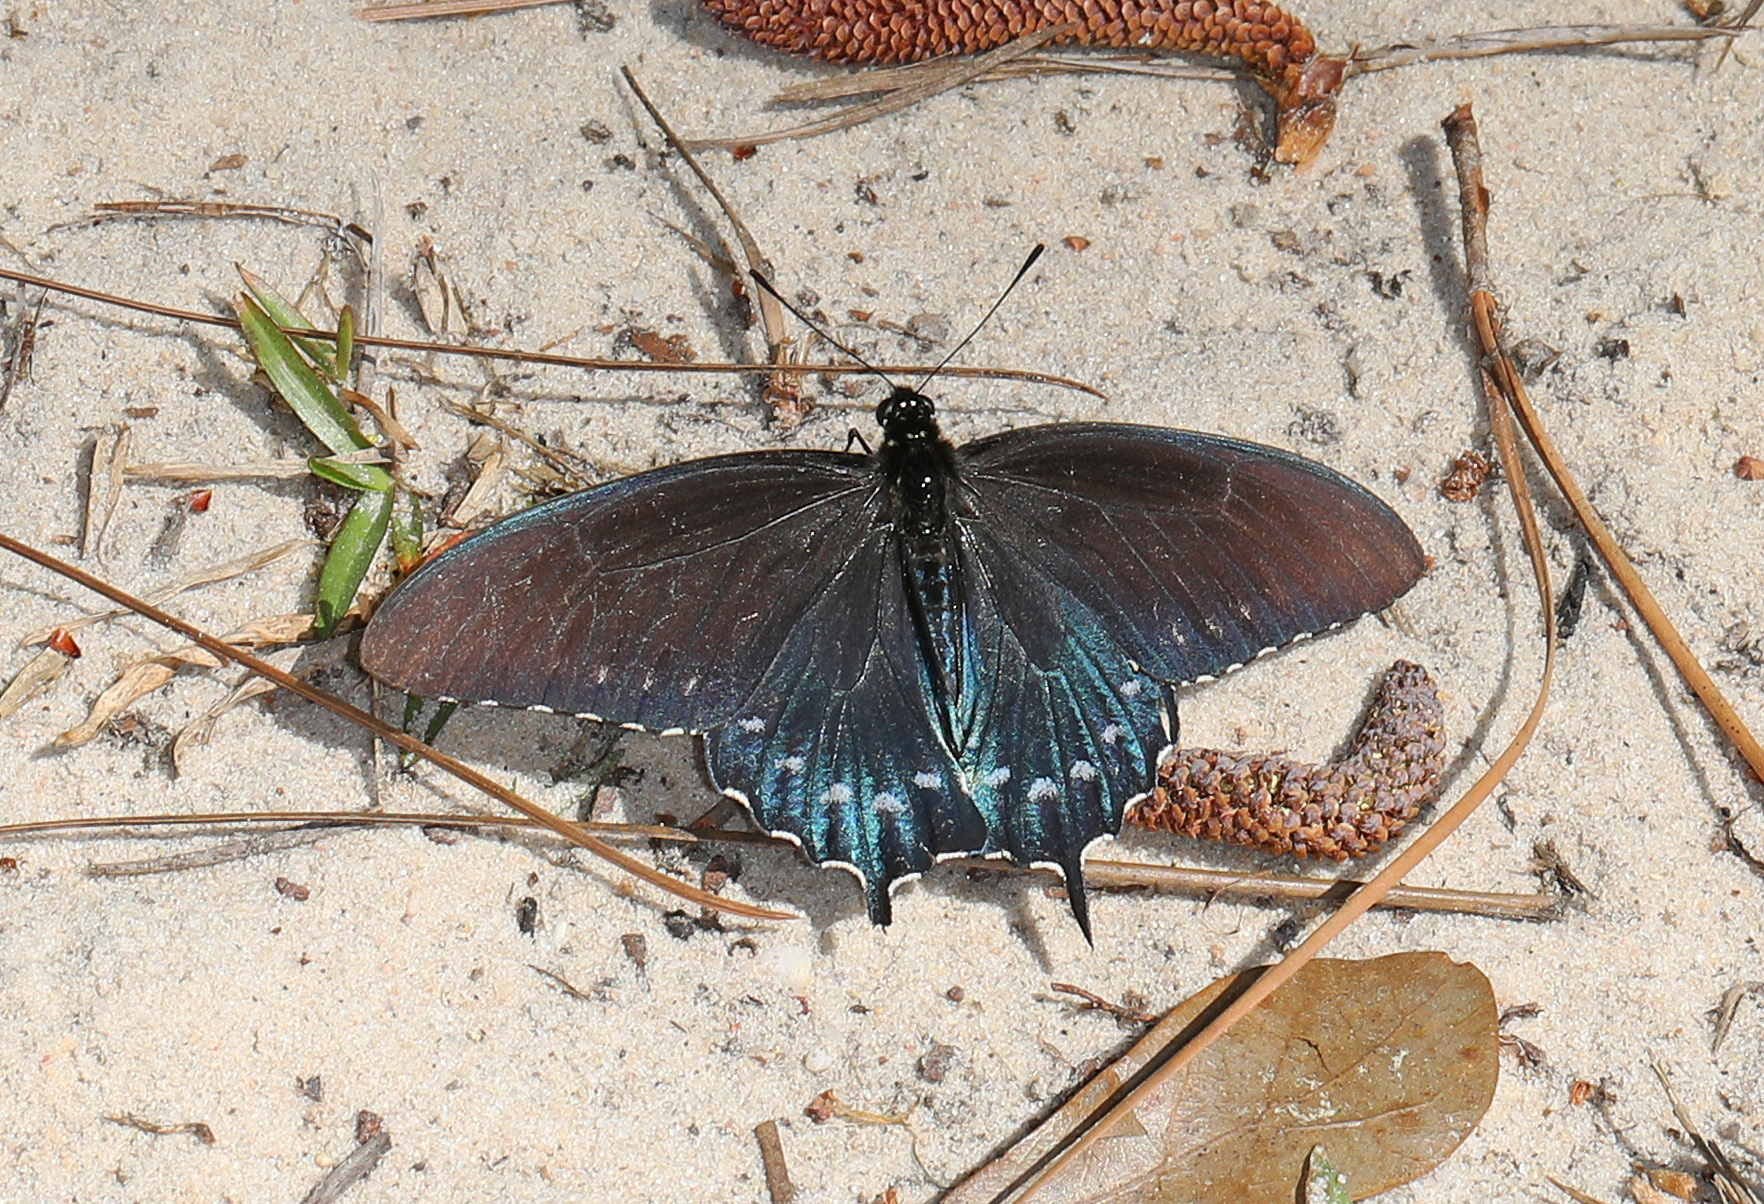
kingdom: Animalia
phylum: Arthropoda
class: Insecta
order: Lepidoptera
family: Papilionidae
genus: Battus
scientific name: Battus philenor
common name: Pipevine swallowtail
